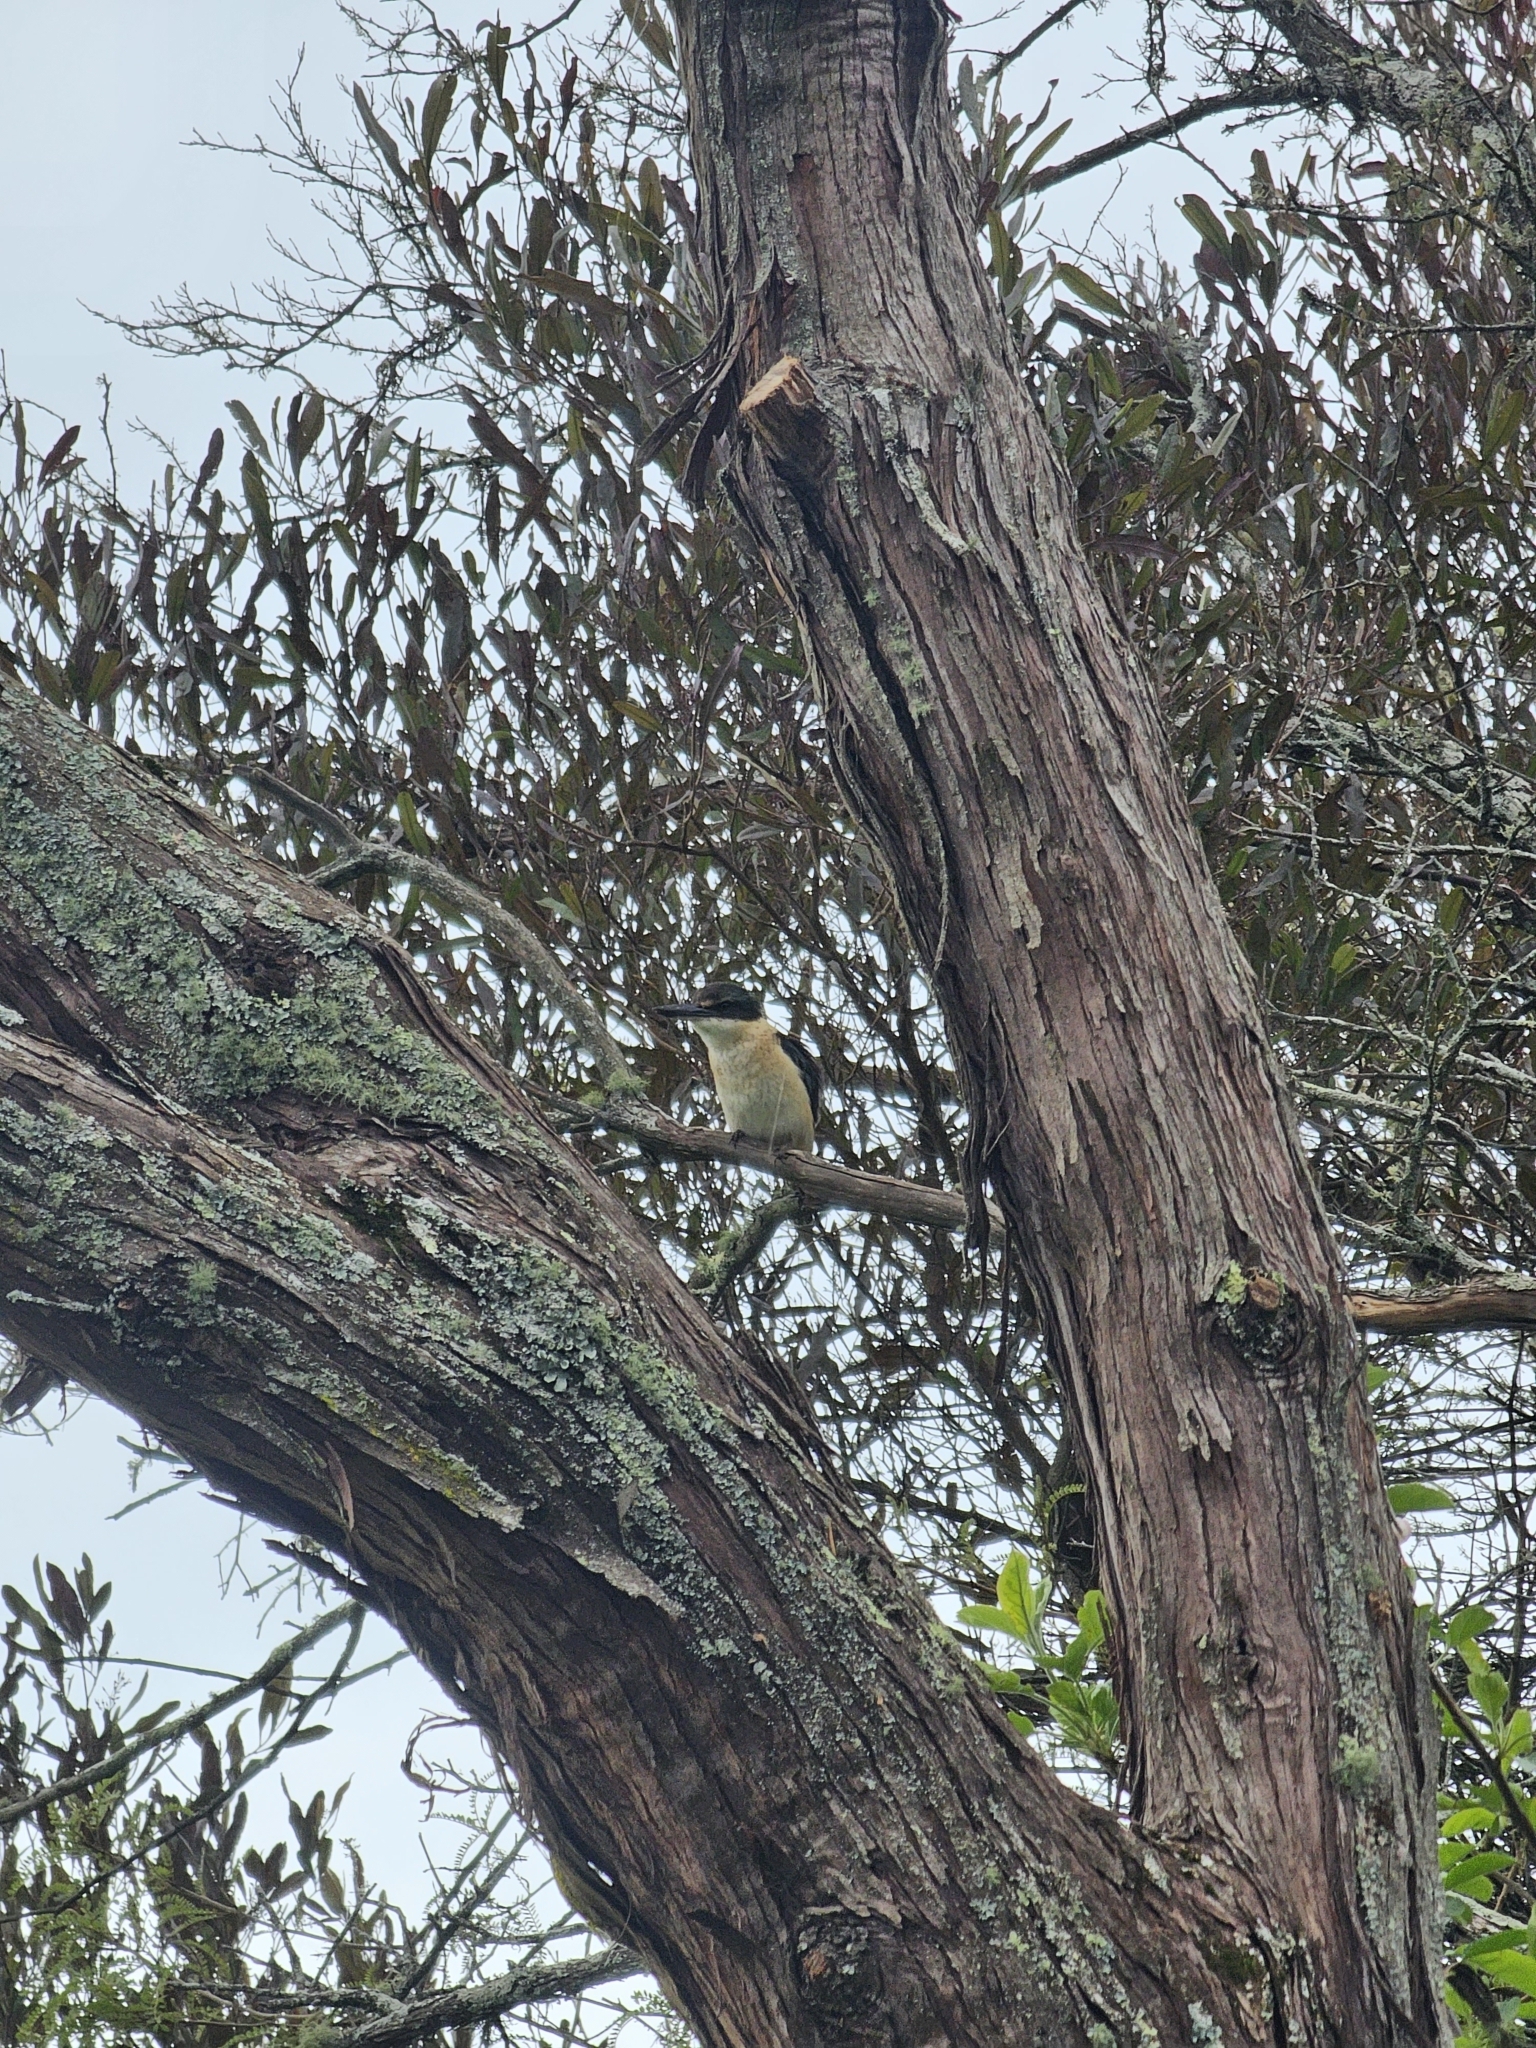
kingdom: Animalia
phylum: Chordata
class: Aves
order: Coraciiformes
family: Alcedinidae
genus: Todiramphus
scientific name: Todiramphus sanctus
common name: Sacred kingfisher
